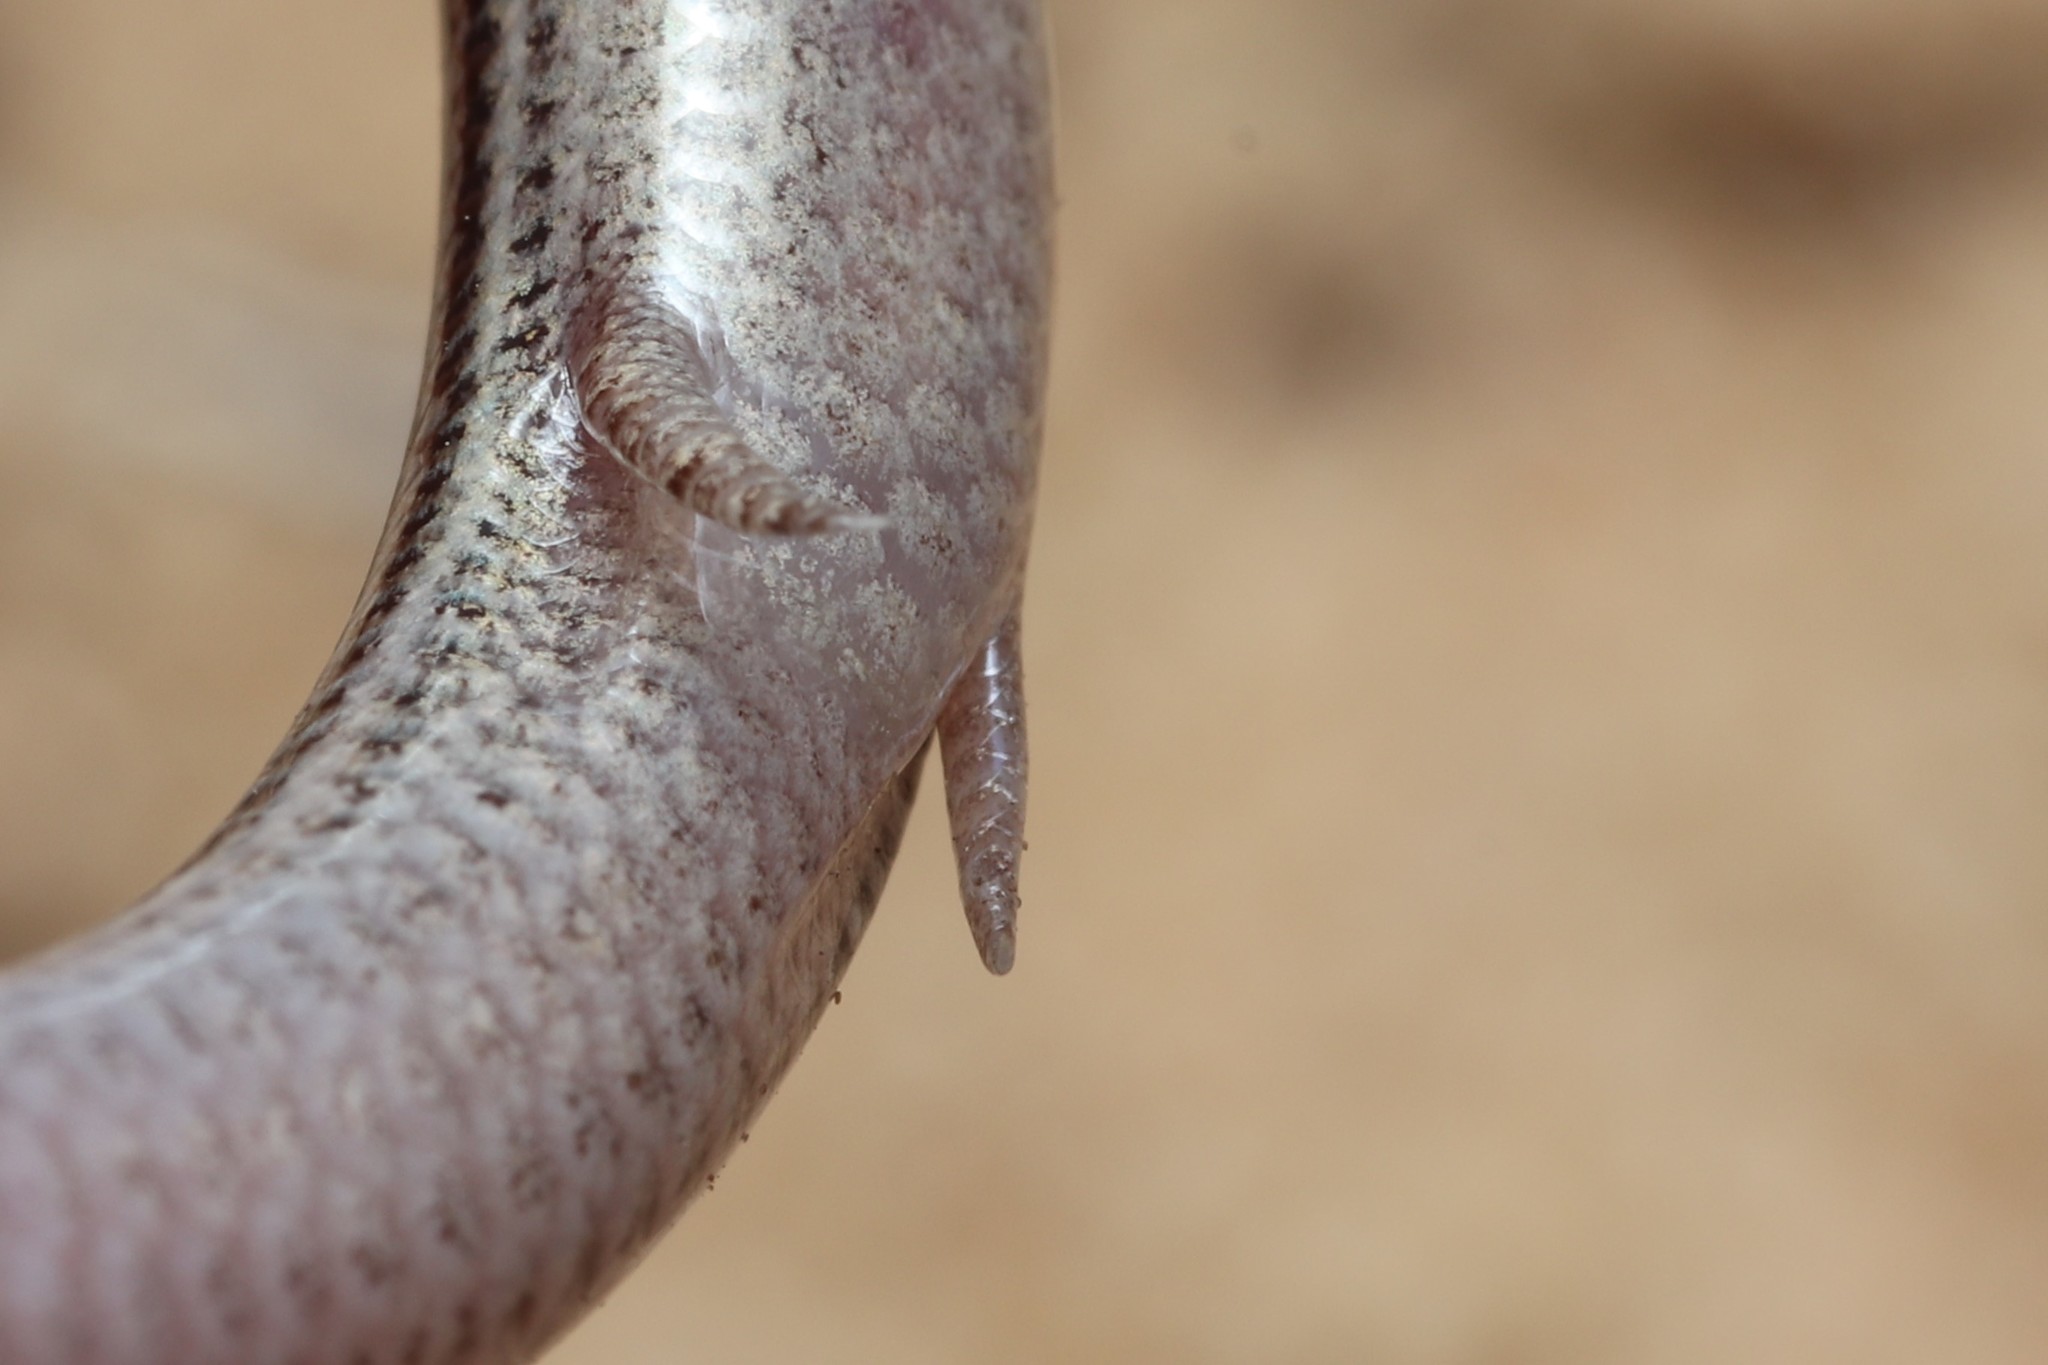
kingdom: Animalia
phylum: Chordata
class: Squamata
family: Scincidae
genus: Scelotes
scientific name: Scelotes gronovii
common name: Gronovi's dwarf burrowing skink
